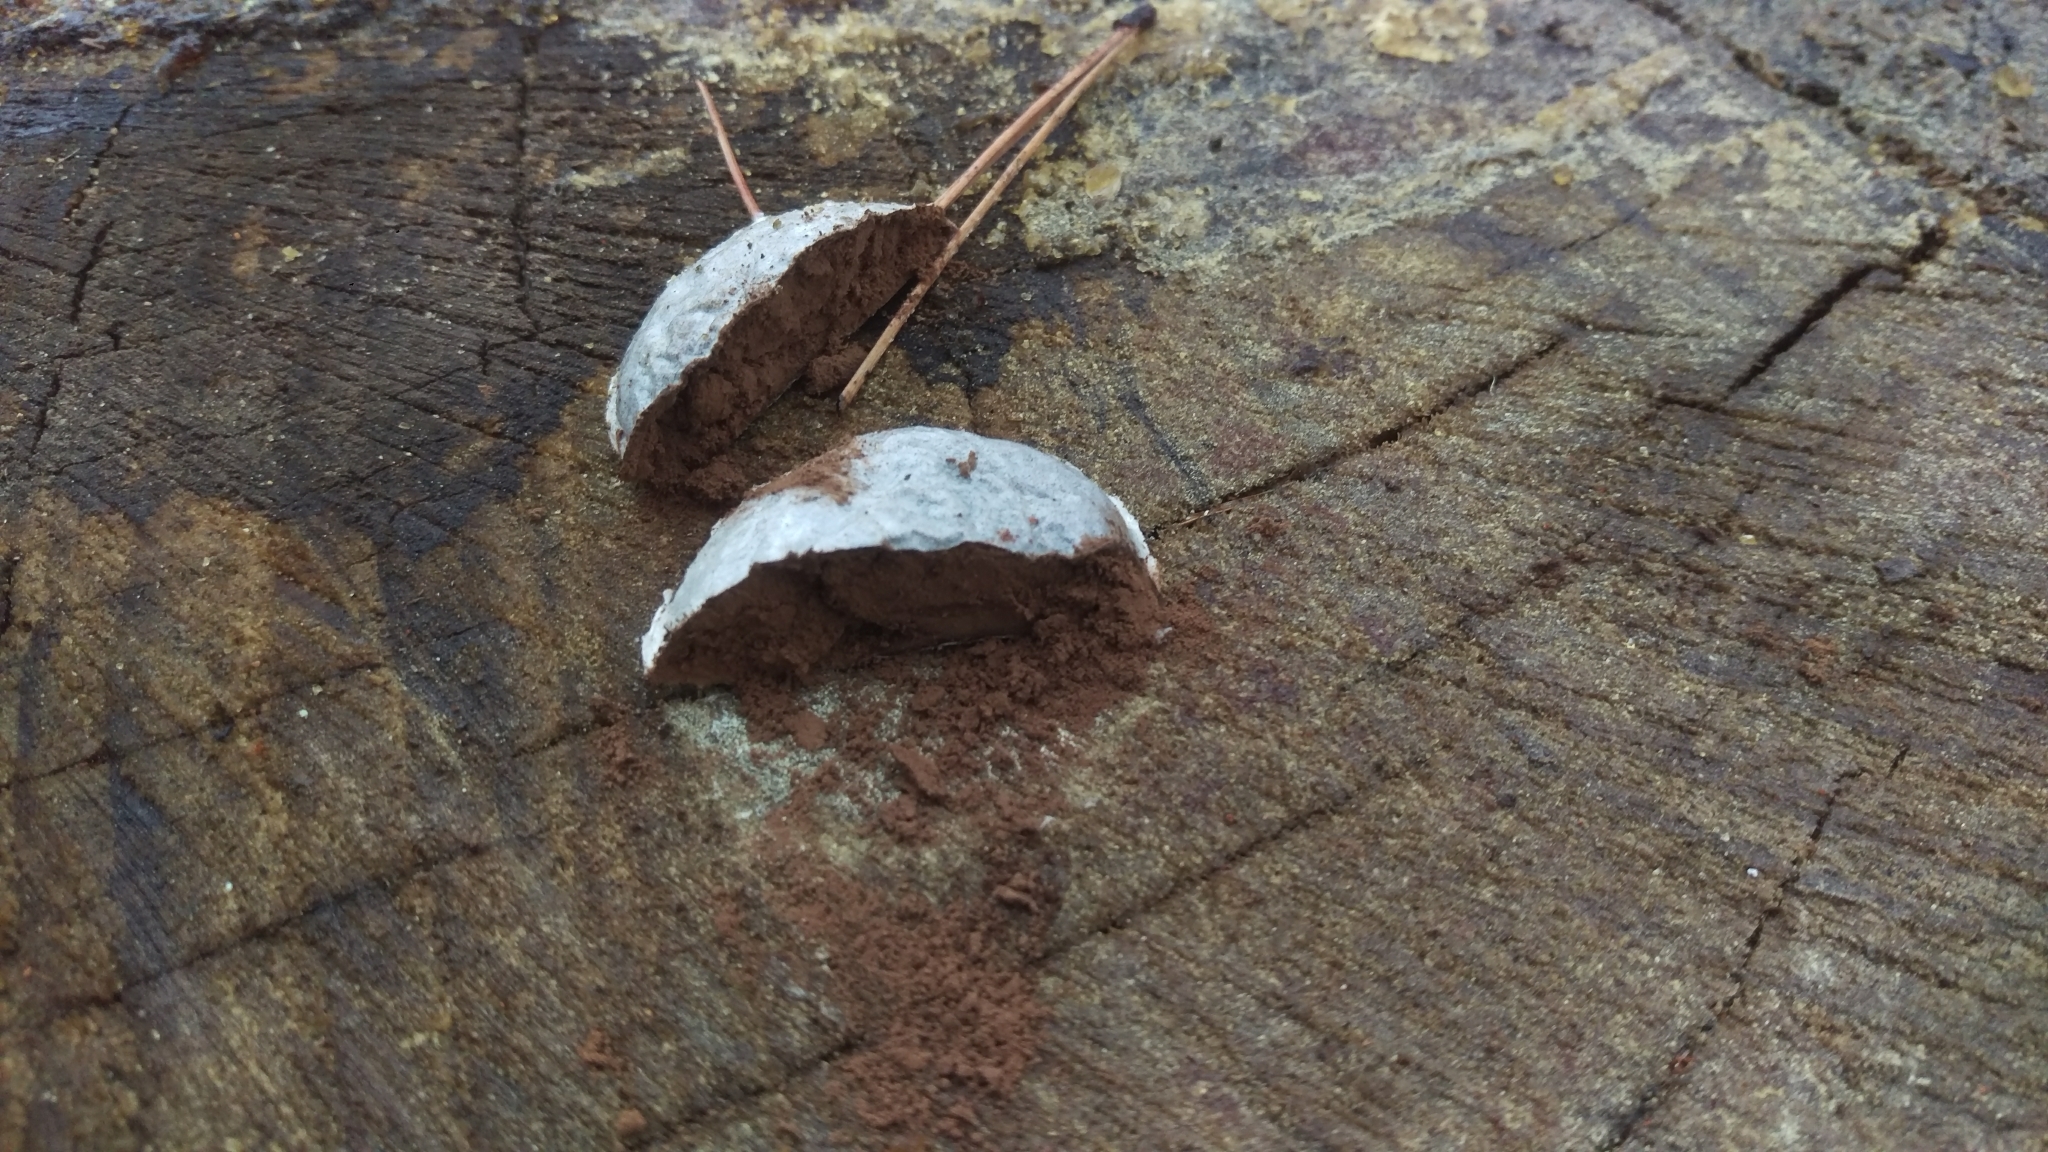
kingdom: Protozoa
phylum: Mycetozoa
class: Myxomycetes
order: Cribrariales
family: Tubiferaceae
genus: Reticularia
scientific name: Reticularia lycoperdon
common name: False puffball
